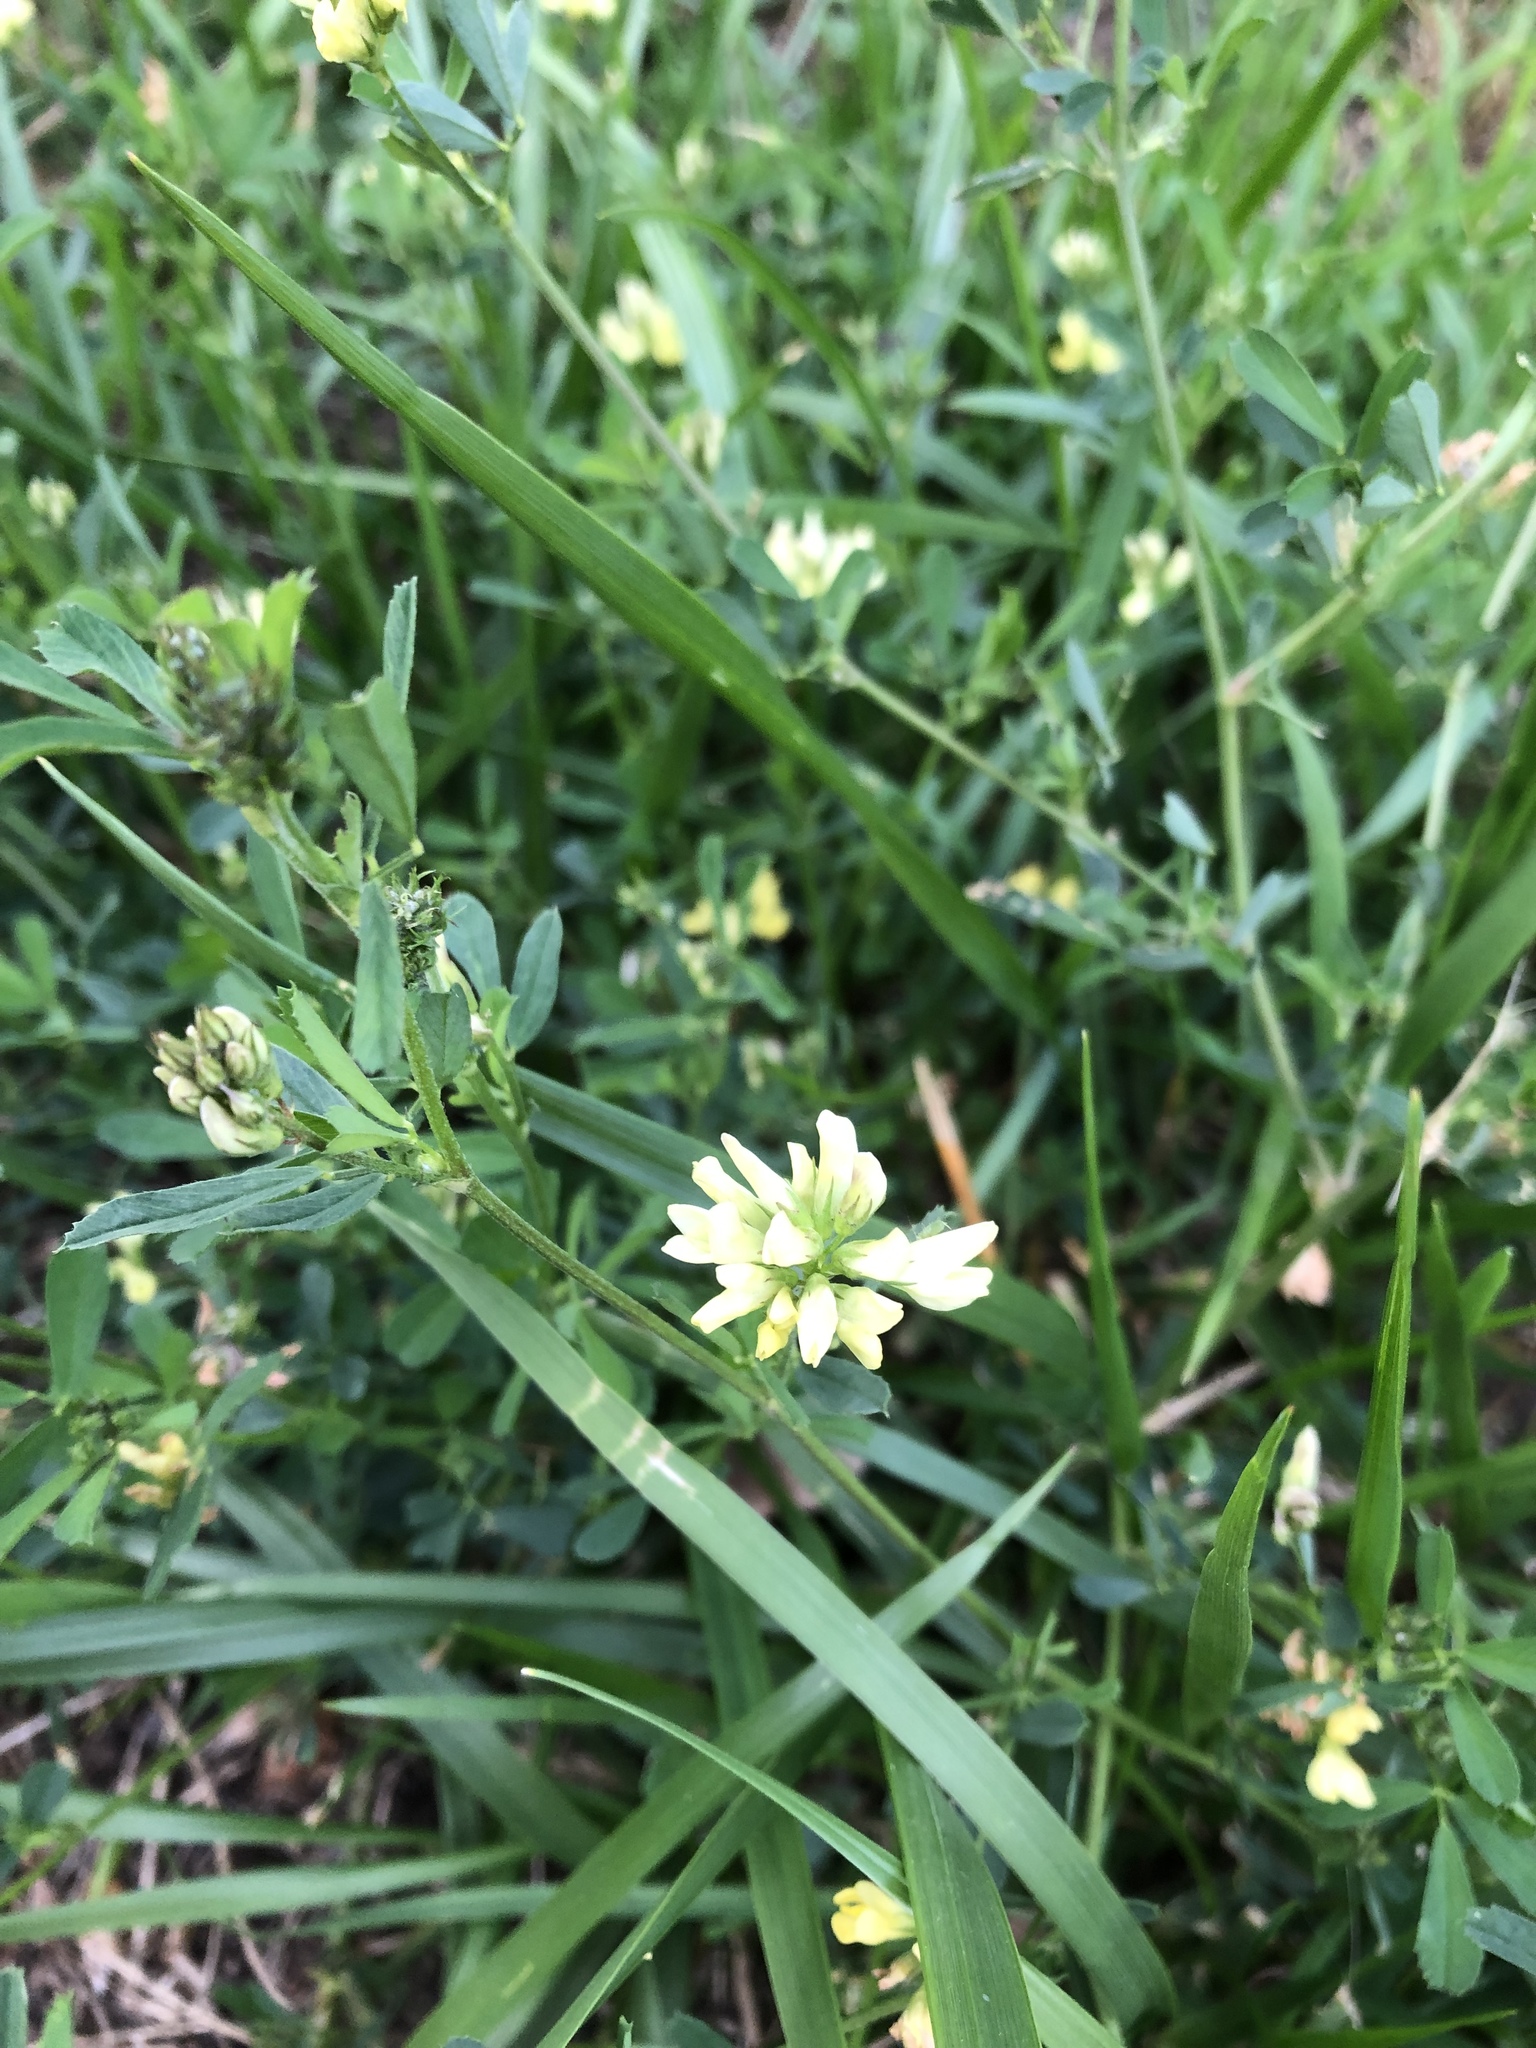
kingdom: Plantae
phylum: Tracheophyta
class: Magnoliopsida
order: Fabales
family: Fabaceae
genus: Medicago
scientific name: Medicago varia
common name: Sand lucerne
